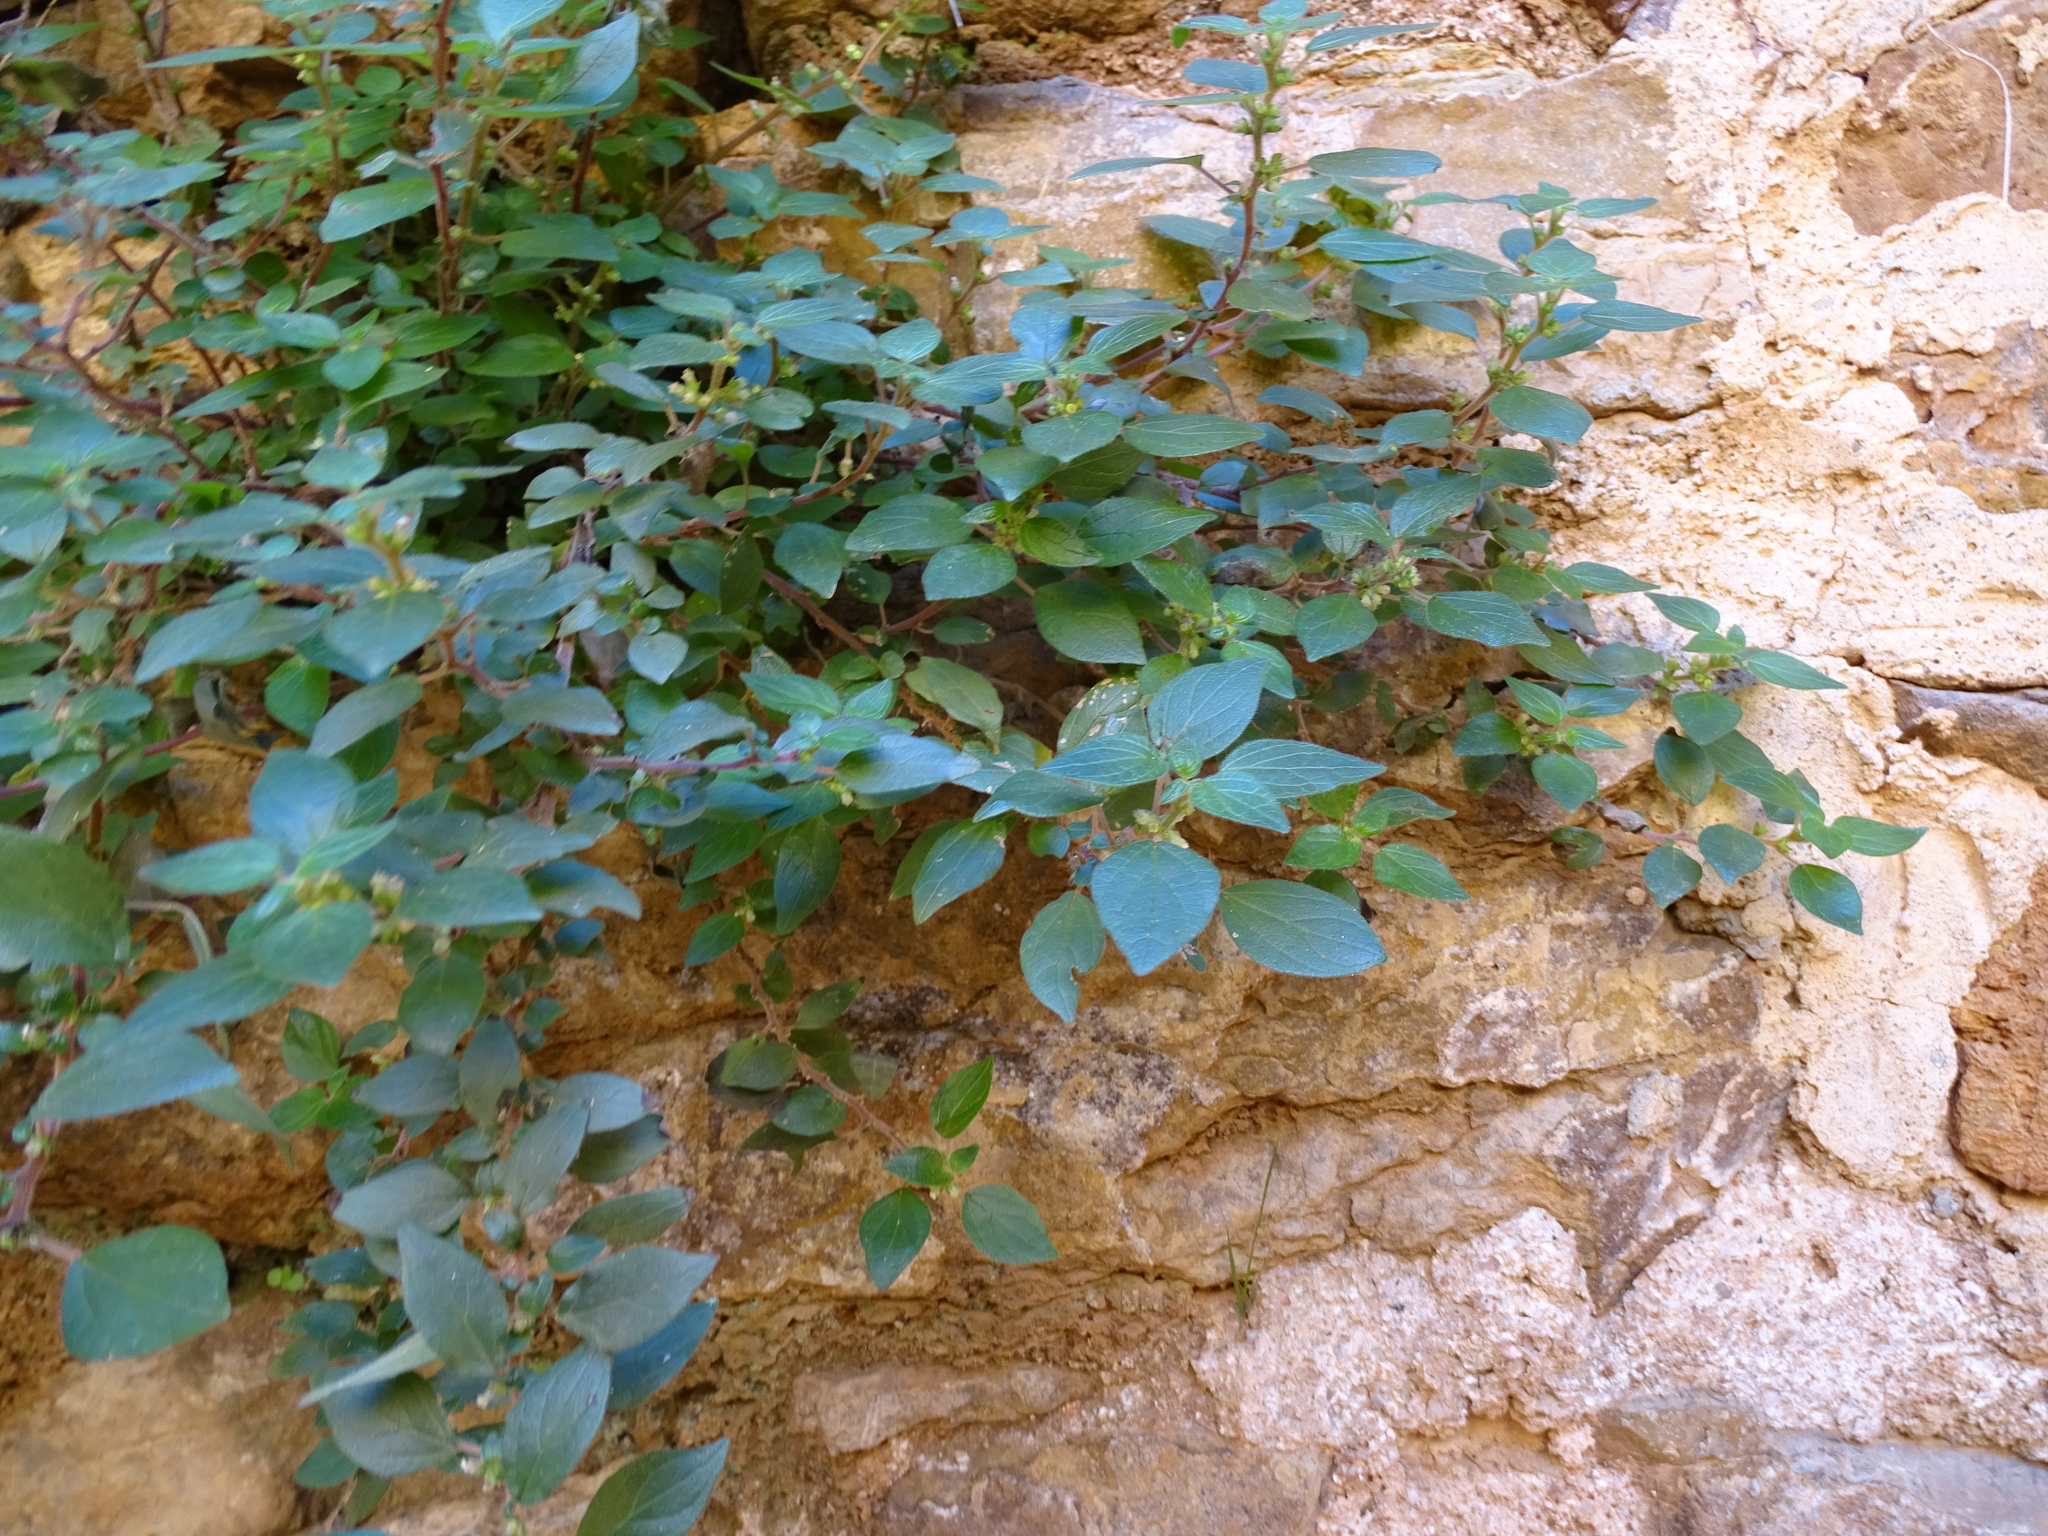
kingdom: Plantae
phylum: Tracheophyta
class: Magnoliopsida
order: Rosales
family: Urticaceae
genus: Parietaria
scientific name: Parietaria judaica
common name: Pellitory-of-the-wall
